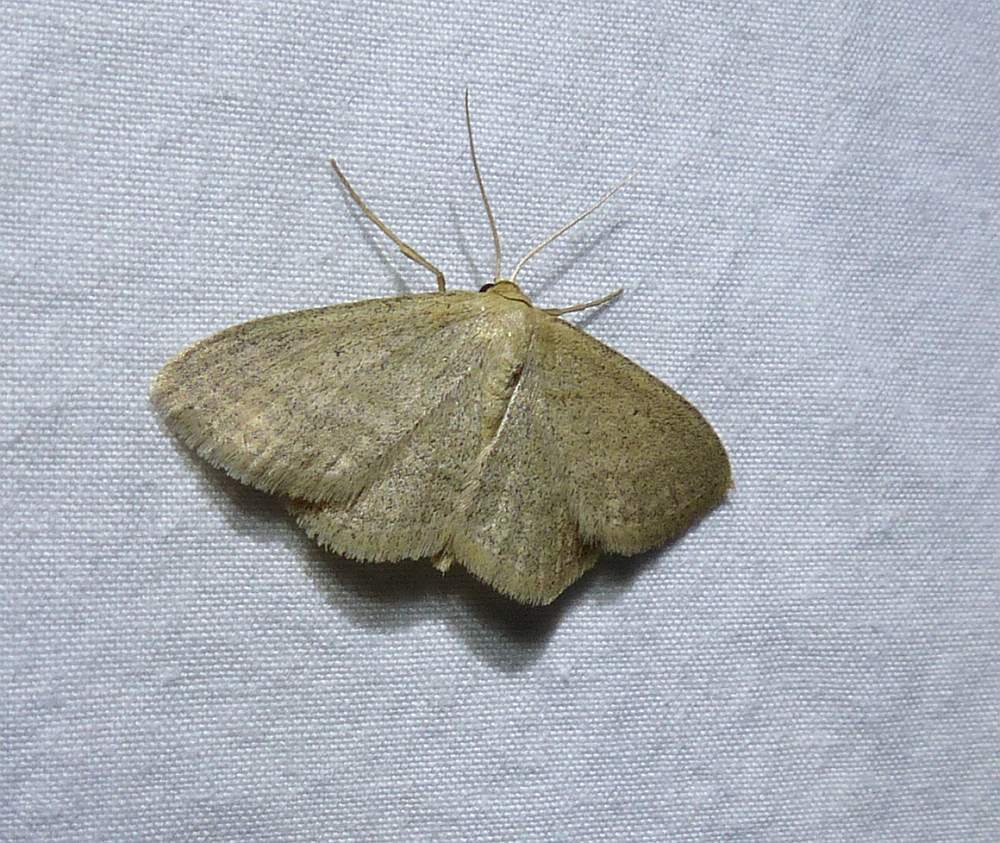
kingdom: Animalia
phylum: Arthropoda
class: Insecta
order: Lepidoptera
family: Geometridae
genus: Scopula
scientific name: Scopula inductata
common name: Soft-lined wave
